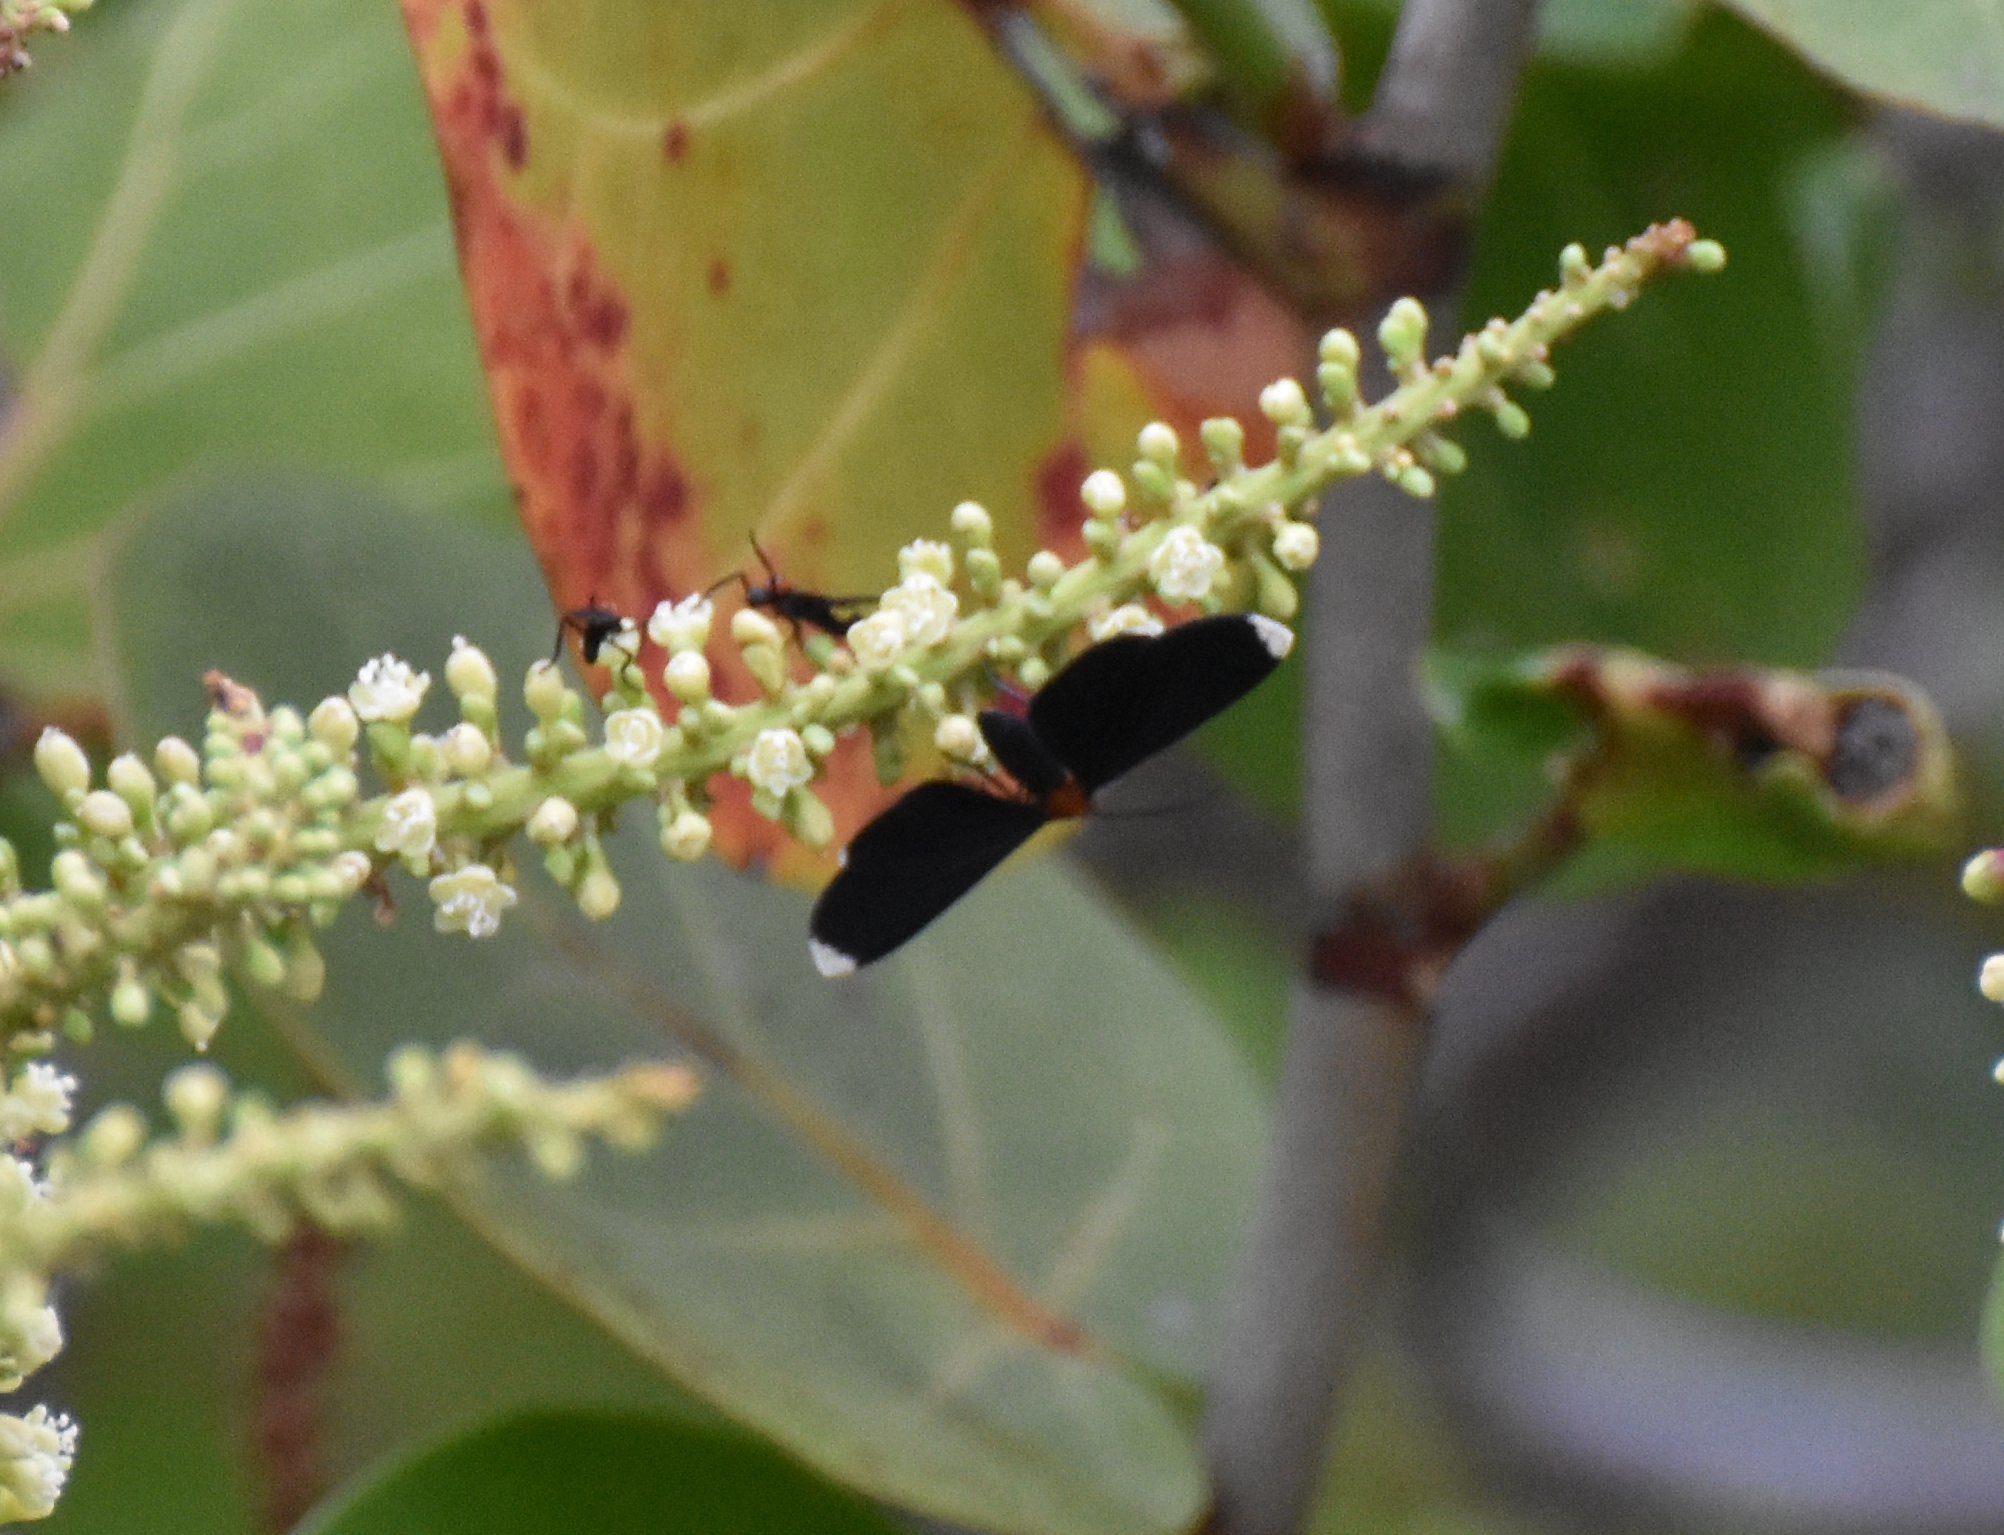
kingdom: Animalia
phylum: Arthropoda
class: Insecta
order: Lepidoptera
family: Geometridae
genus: Melanchroia
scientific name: Melanchroia chephise
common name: White-tipped black
